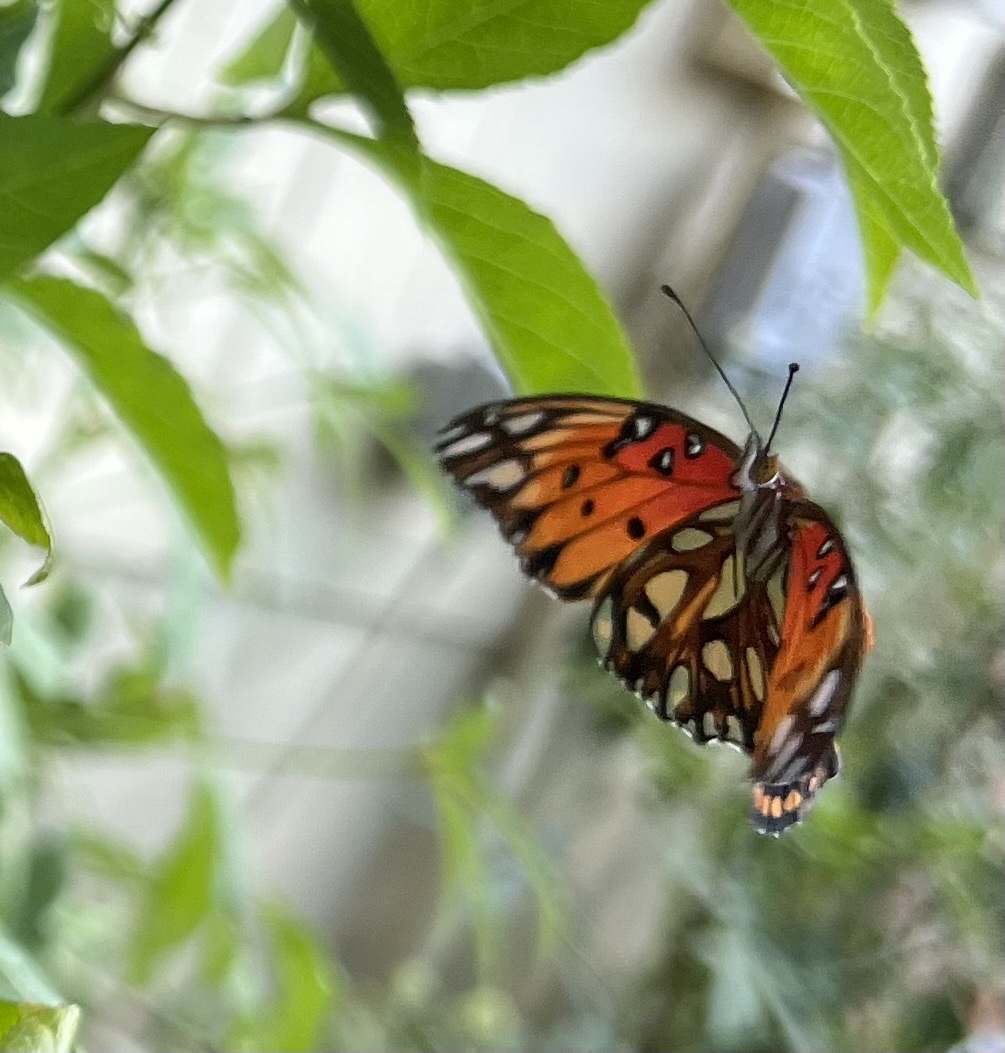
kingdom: Animalia
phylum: Arthropoda
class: Insecta
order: Lepidoptera
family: Nymphalidae
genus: Dione
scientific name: Dione vanillae
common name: Gulf fritillary
